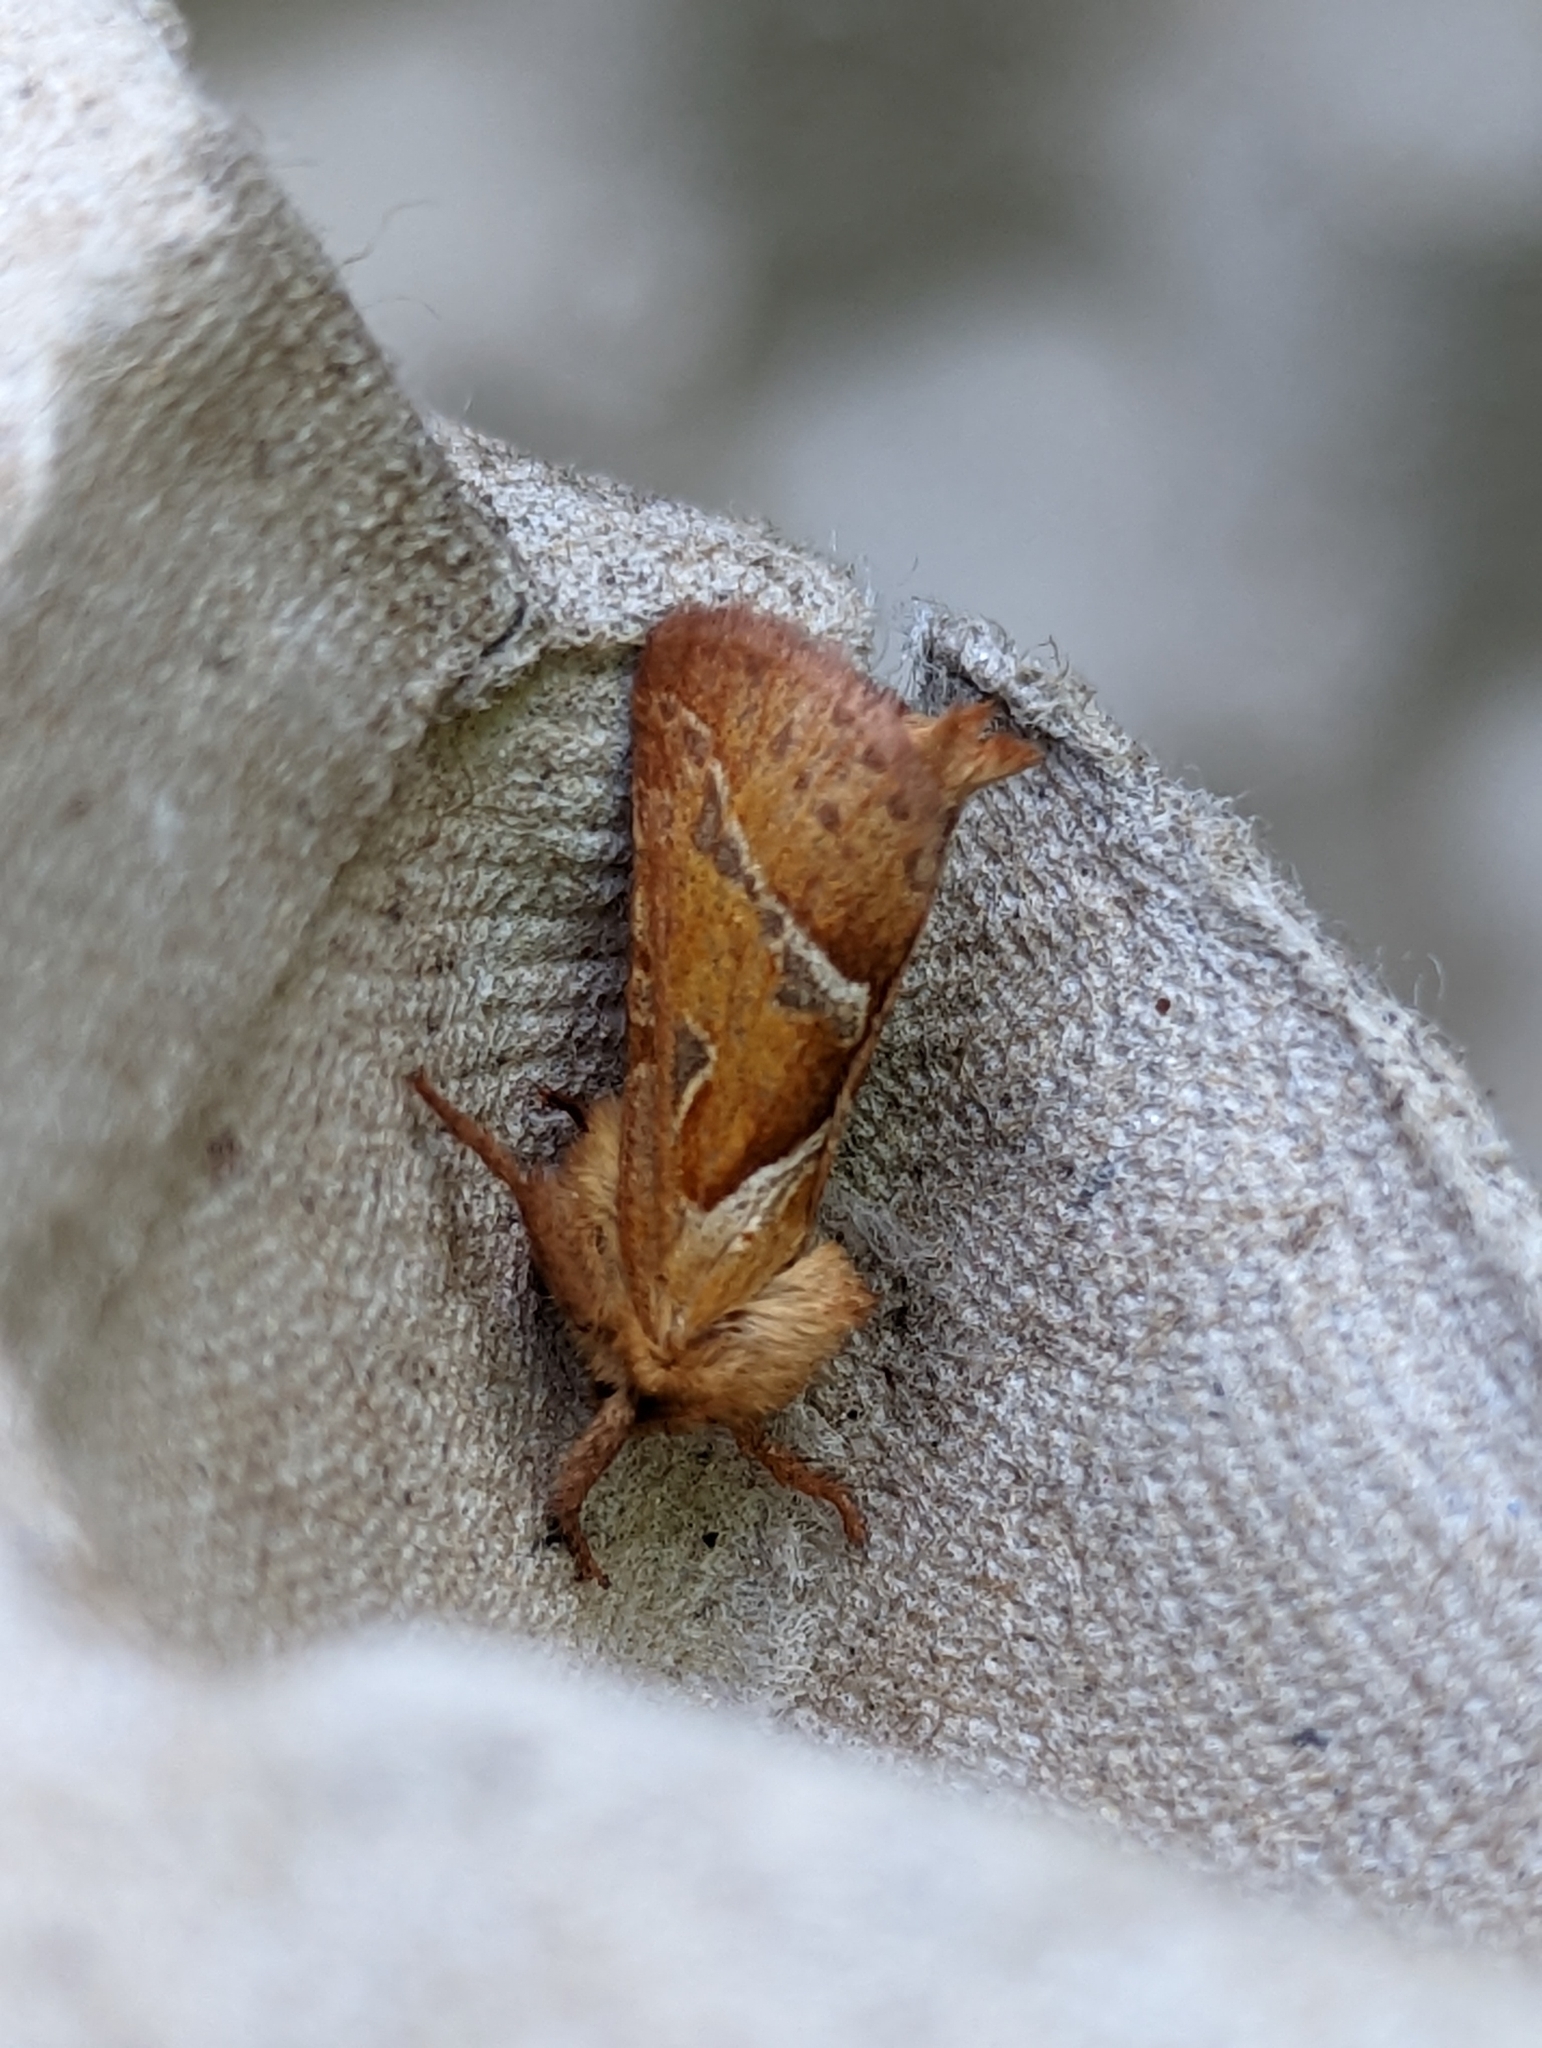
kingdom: Animalia
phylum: Arthropoda
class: Insecta
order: Lepidoptera
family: Hepialidae
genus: Triodia
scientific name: Triodia sylvina
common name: Orange swift
